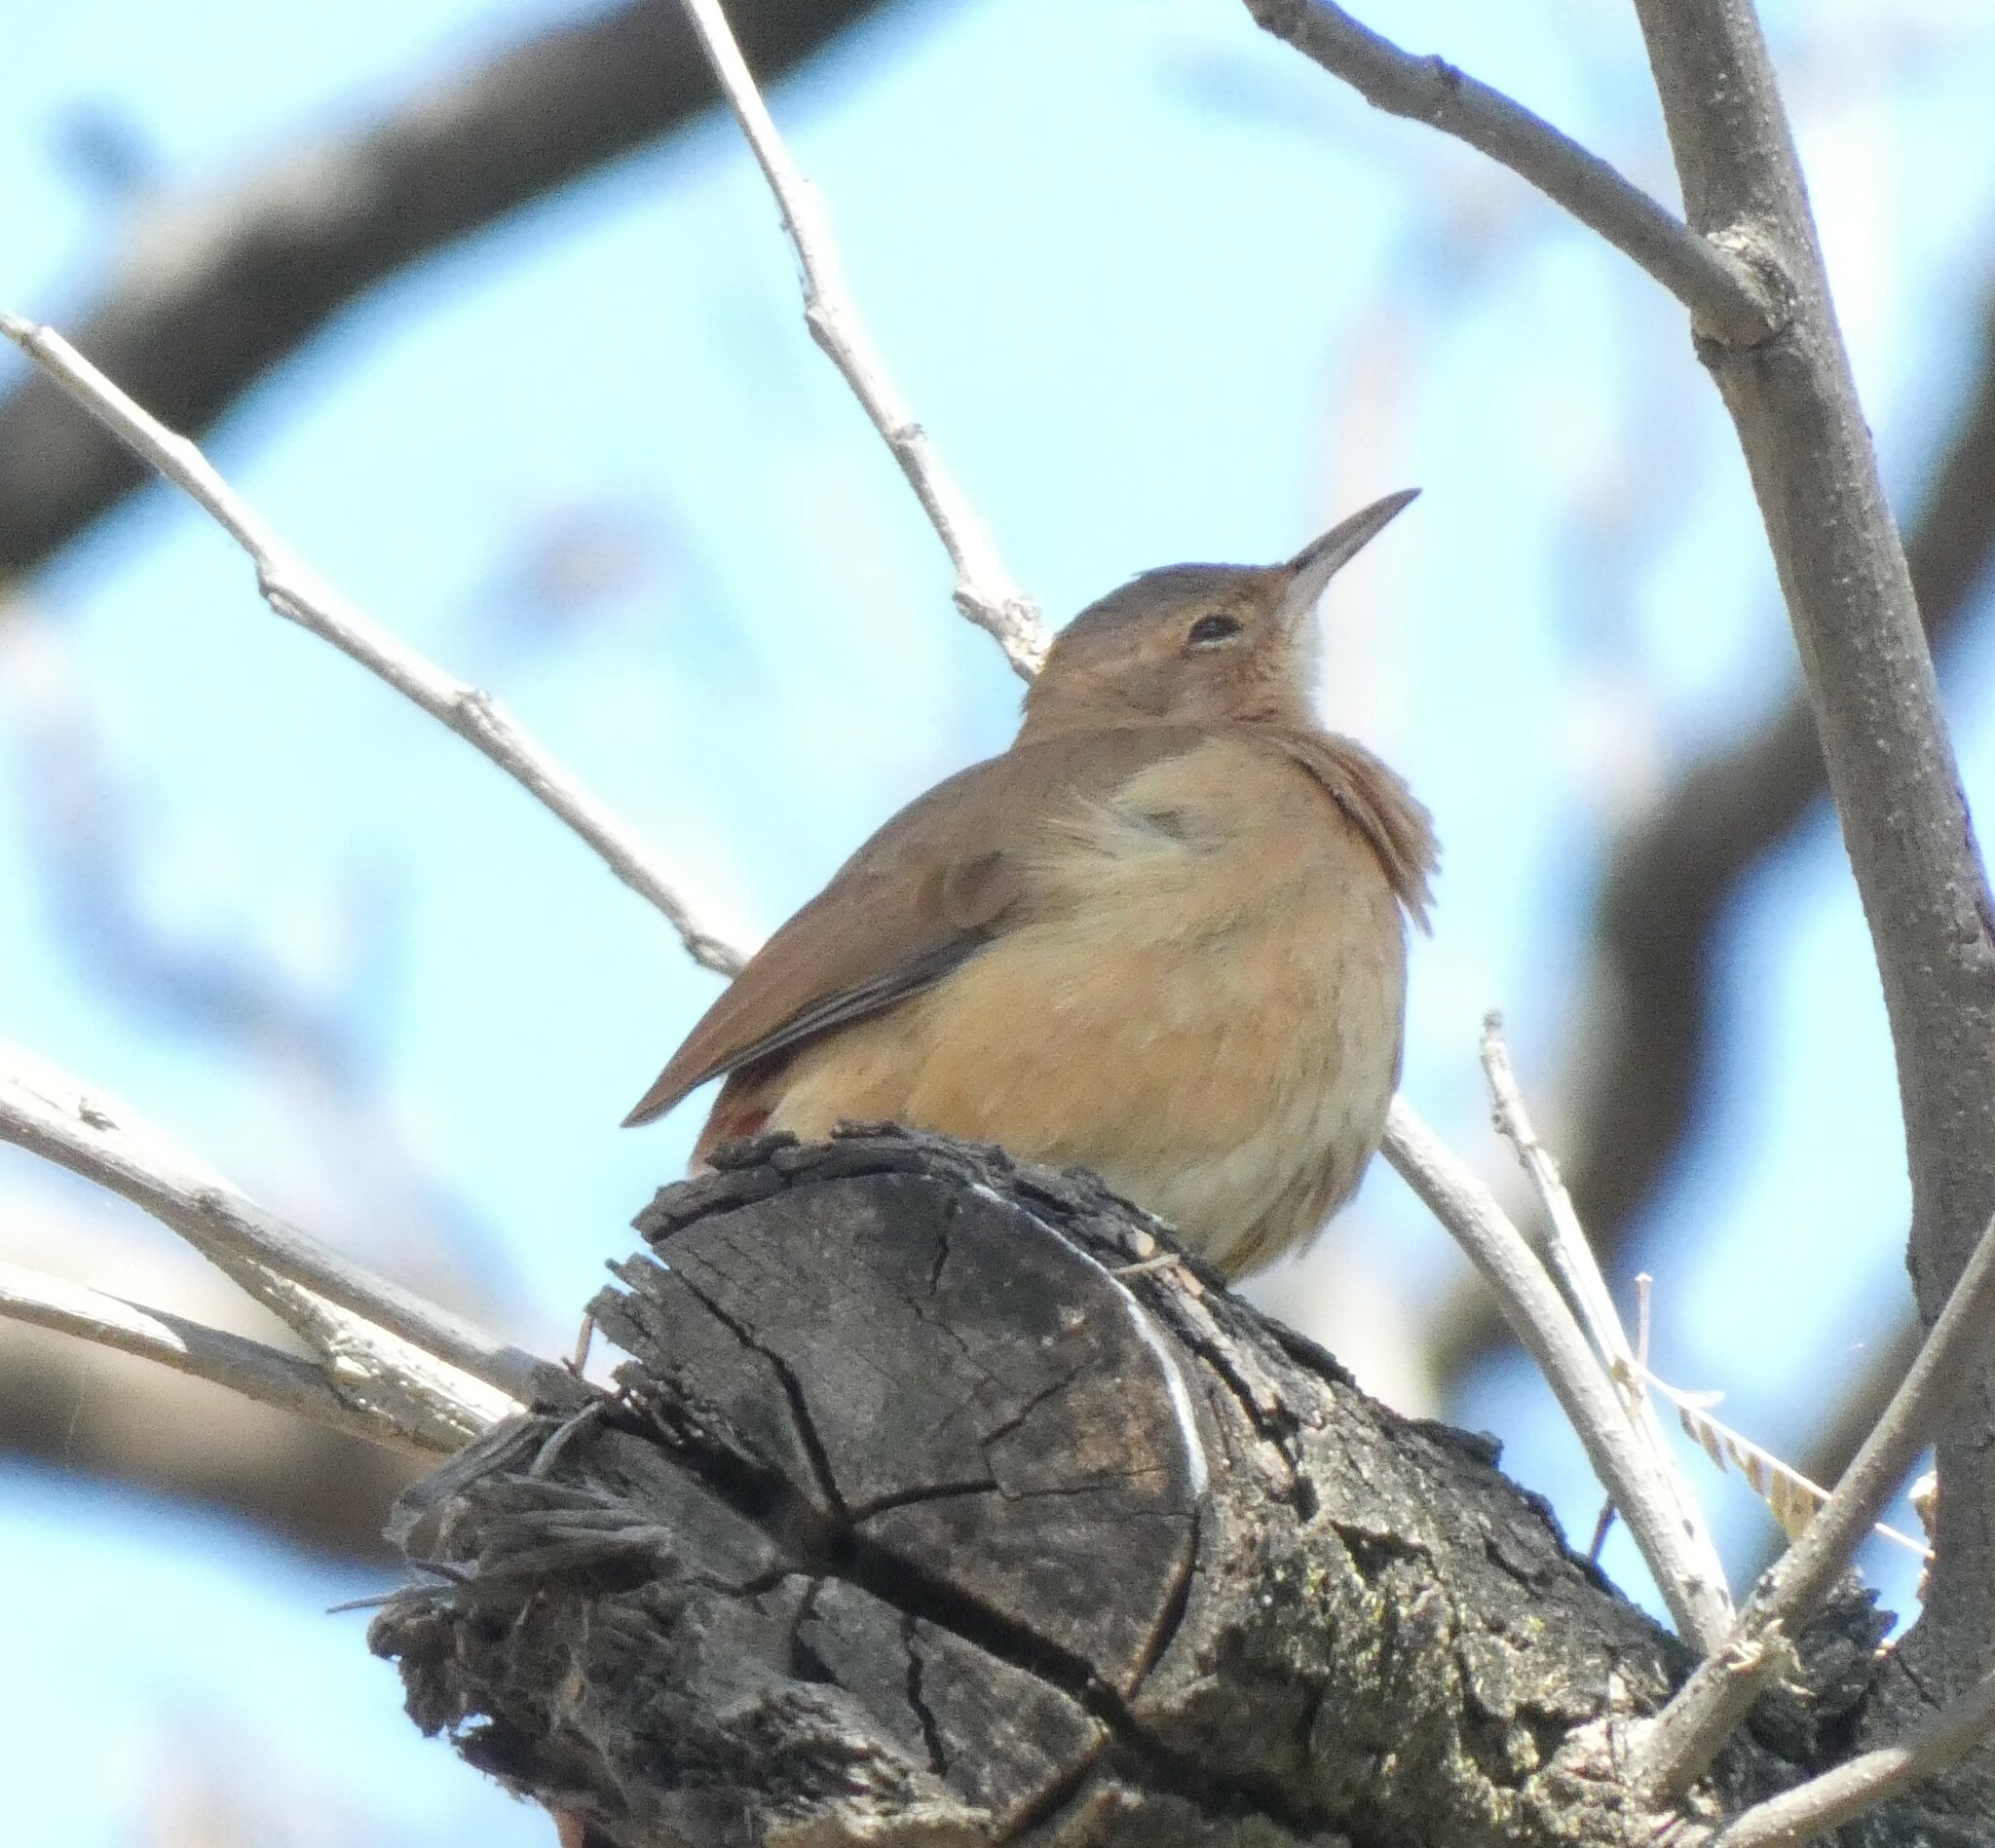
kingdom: Animalia
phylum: Chordata
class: Aves
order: Passeriformes
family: Furnariidae
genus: Furnarius
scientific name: Furnarius rufus
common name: Rufous hornero
